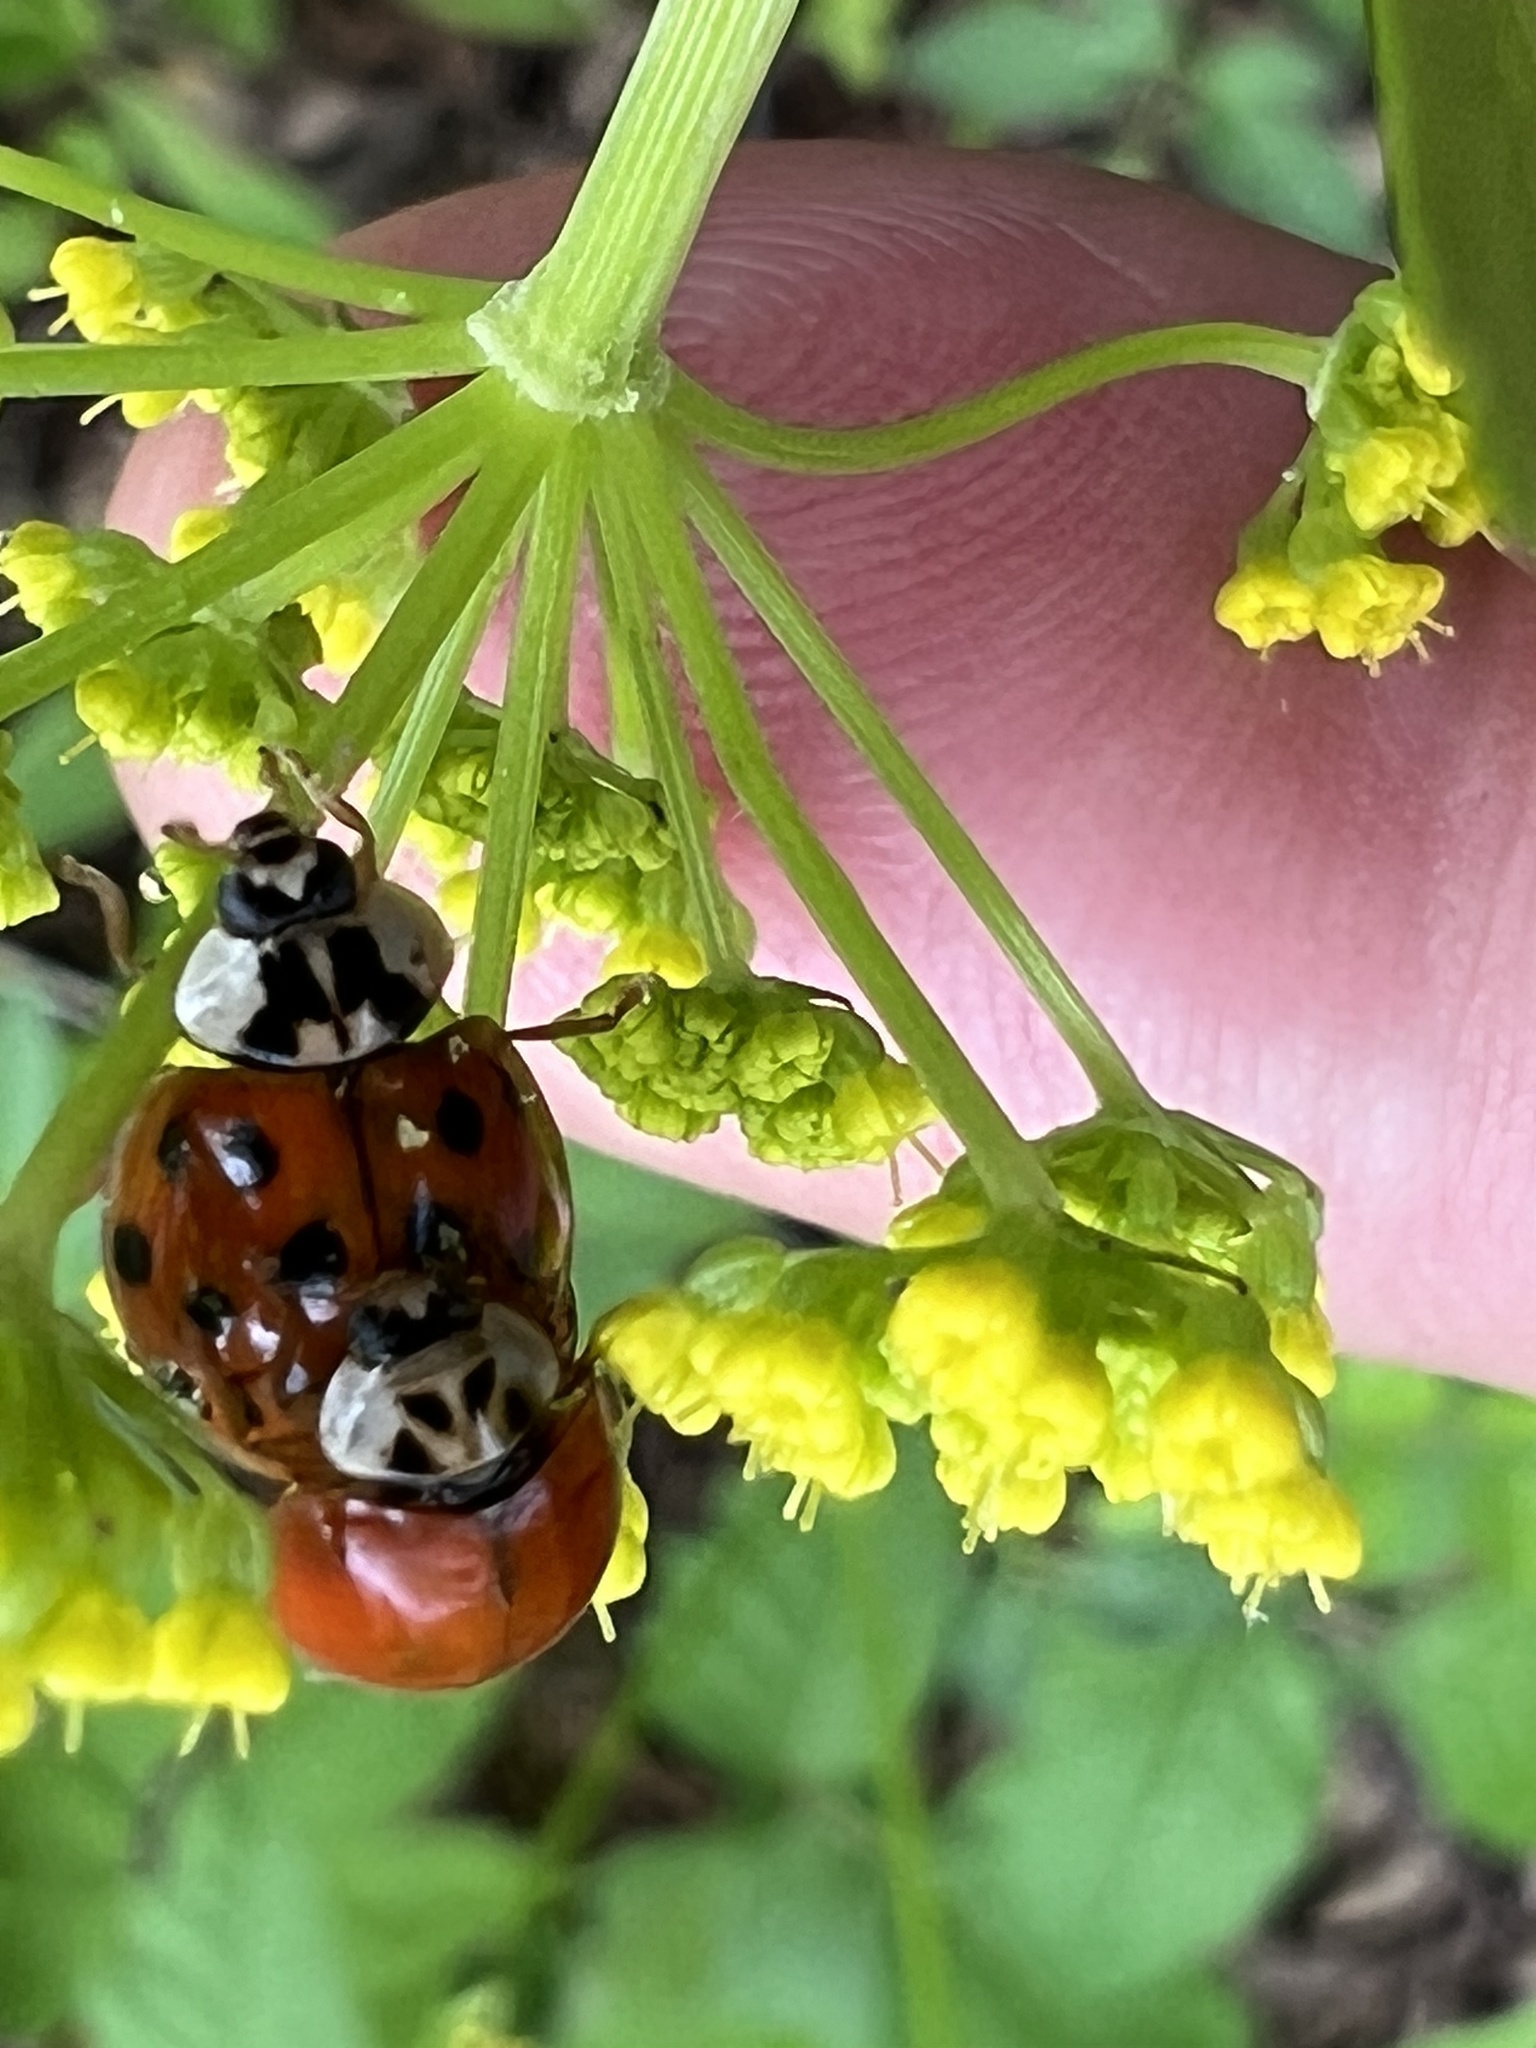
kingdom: Animalia
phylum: Arthropoda
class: Insecta
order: Coleoptera
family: Coccinellidae
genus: Harmonia
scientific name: Harmonia axyridis
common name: Harlequin ladybird
